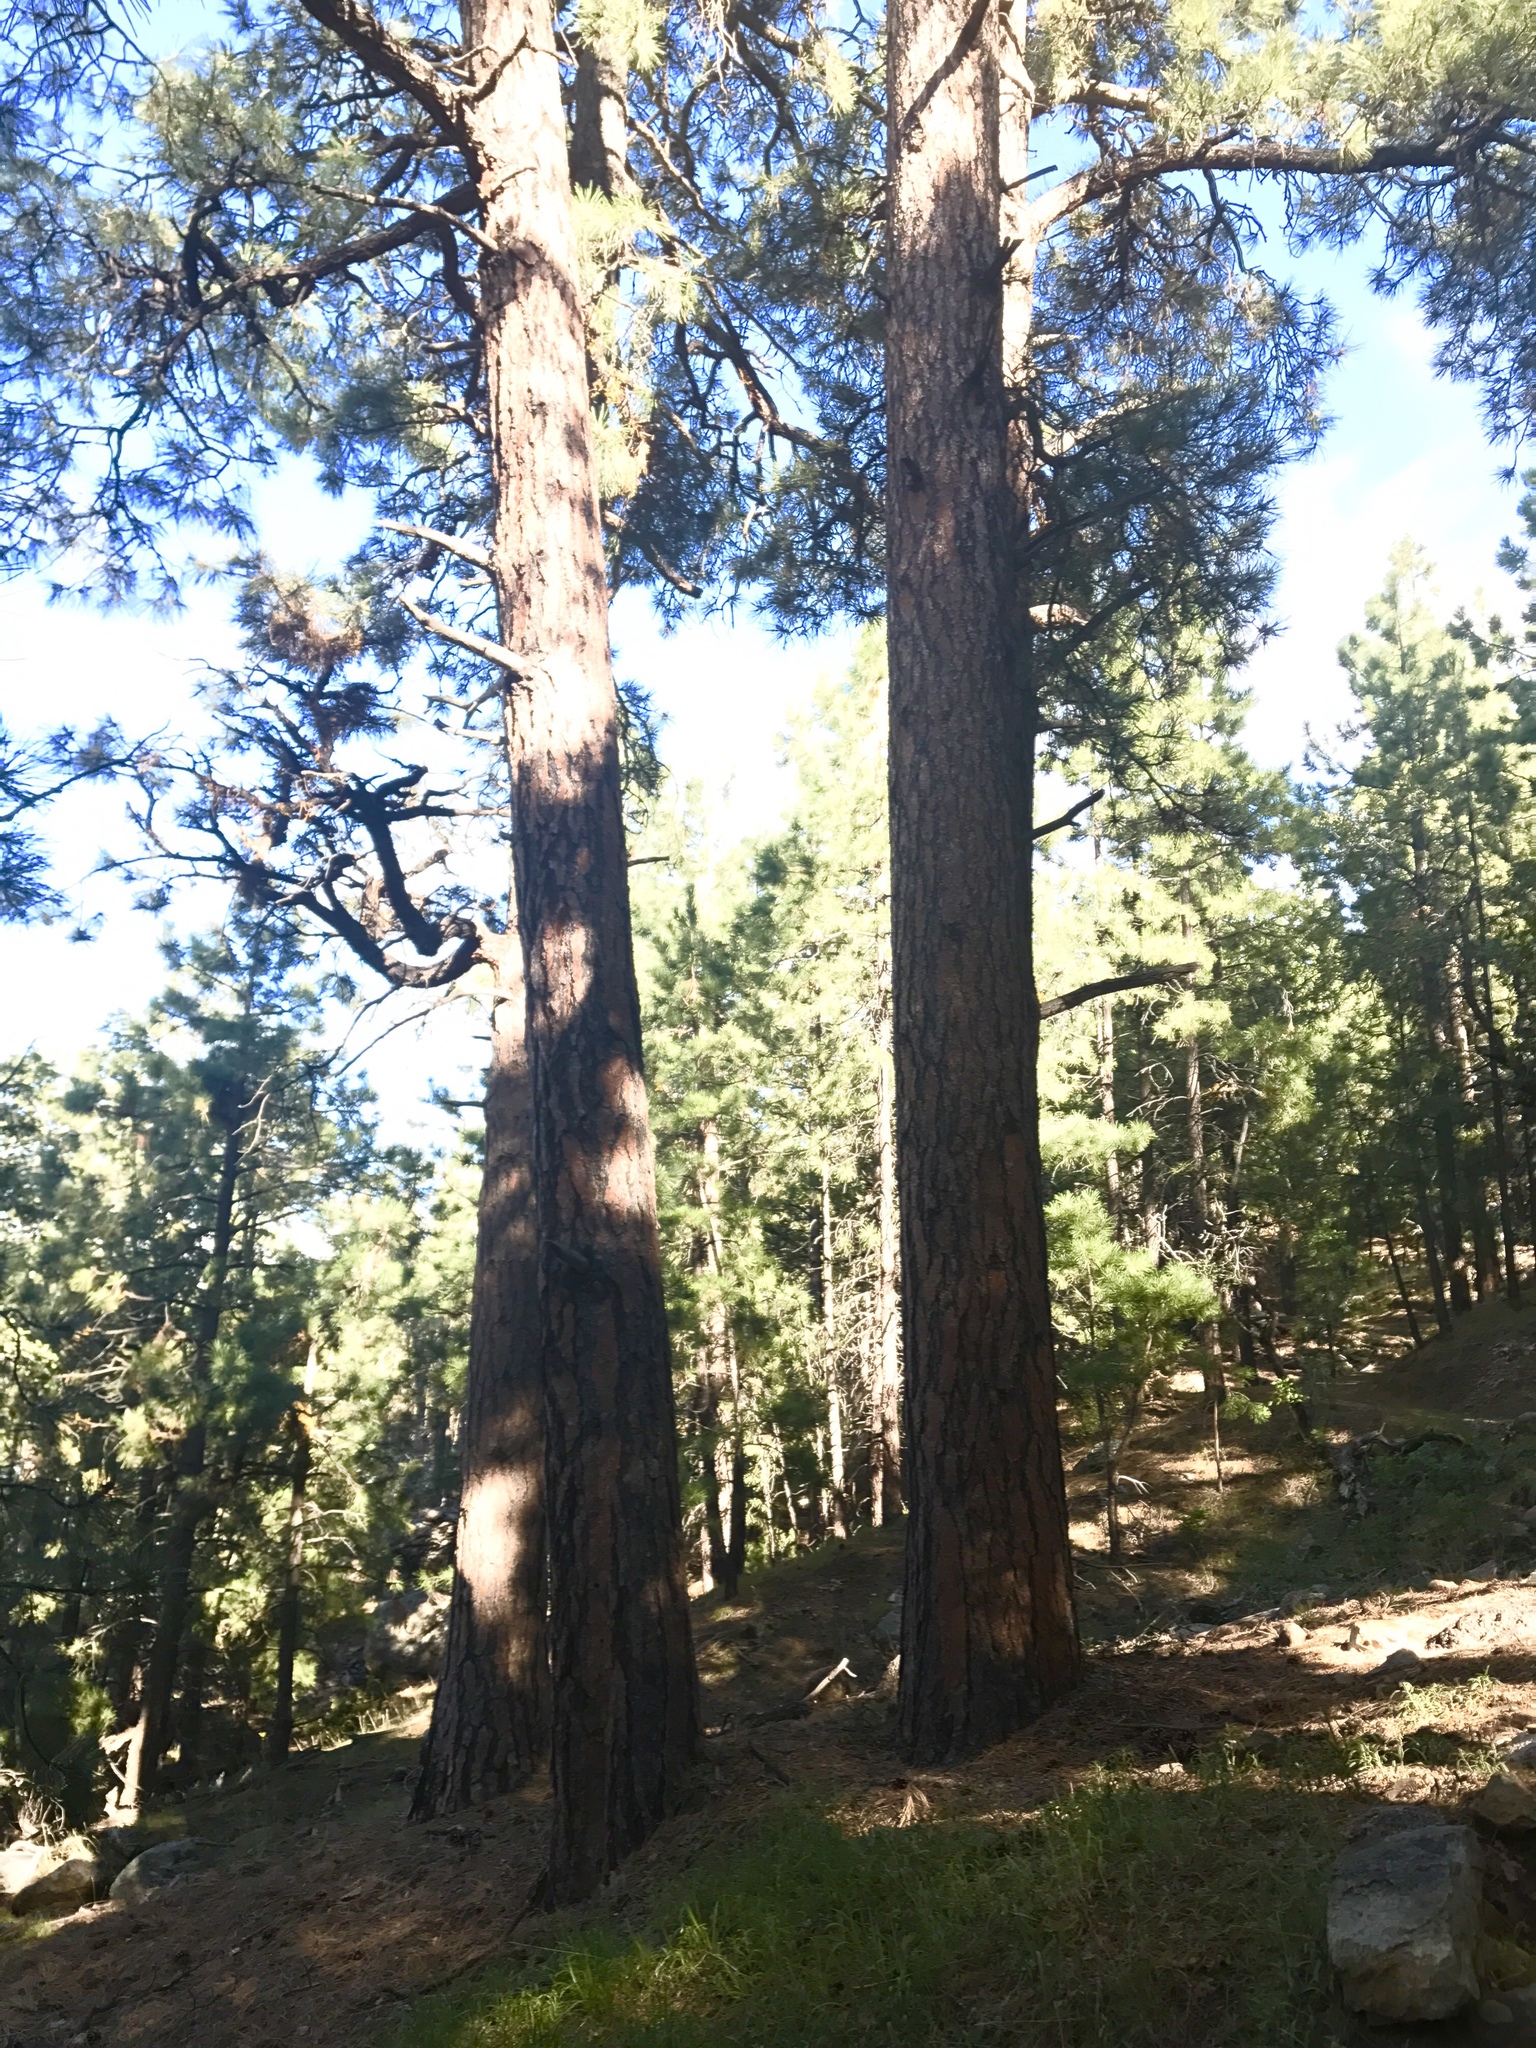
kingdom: Plantae
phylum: Tracheophyta
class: Pinopsida
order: Pinales
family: Pinaceae
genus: Pinus
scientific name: Pinus ponderosa
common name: Western yellow-pine
